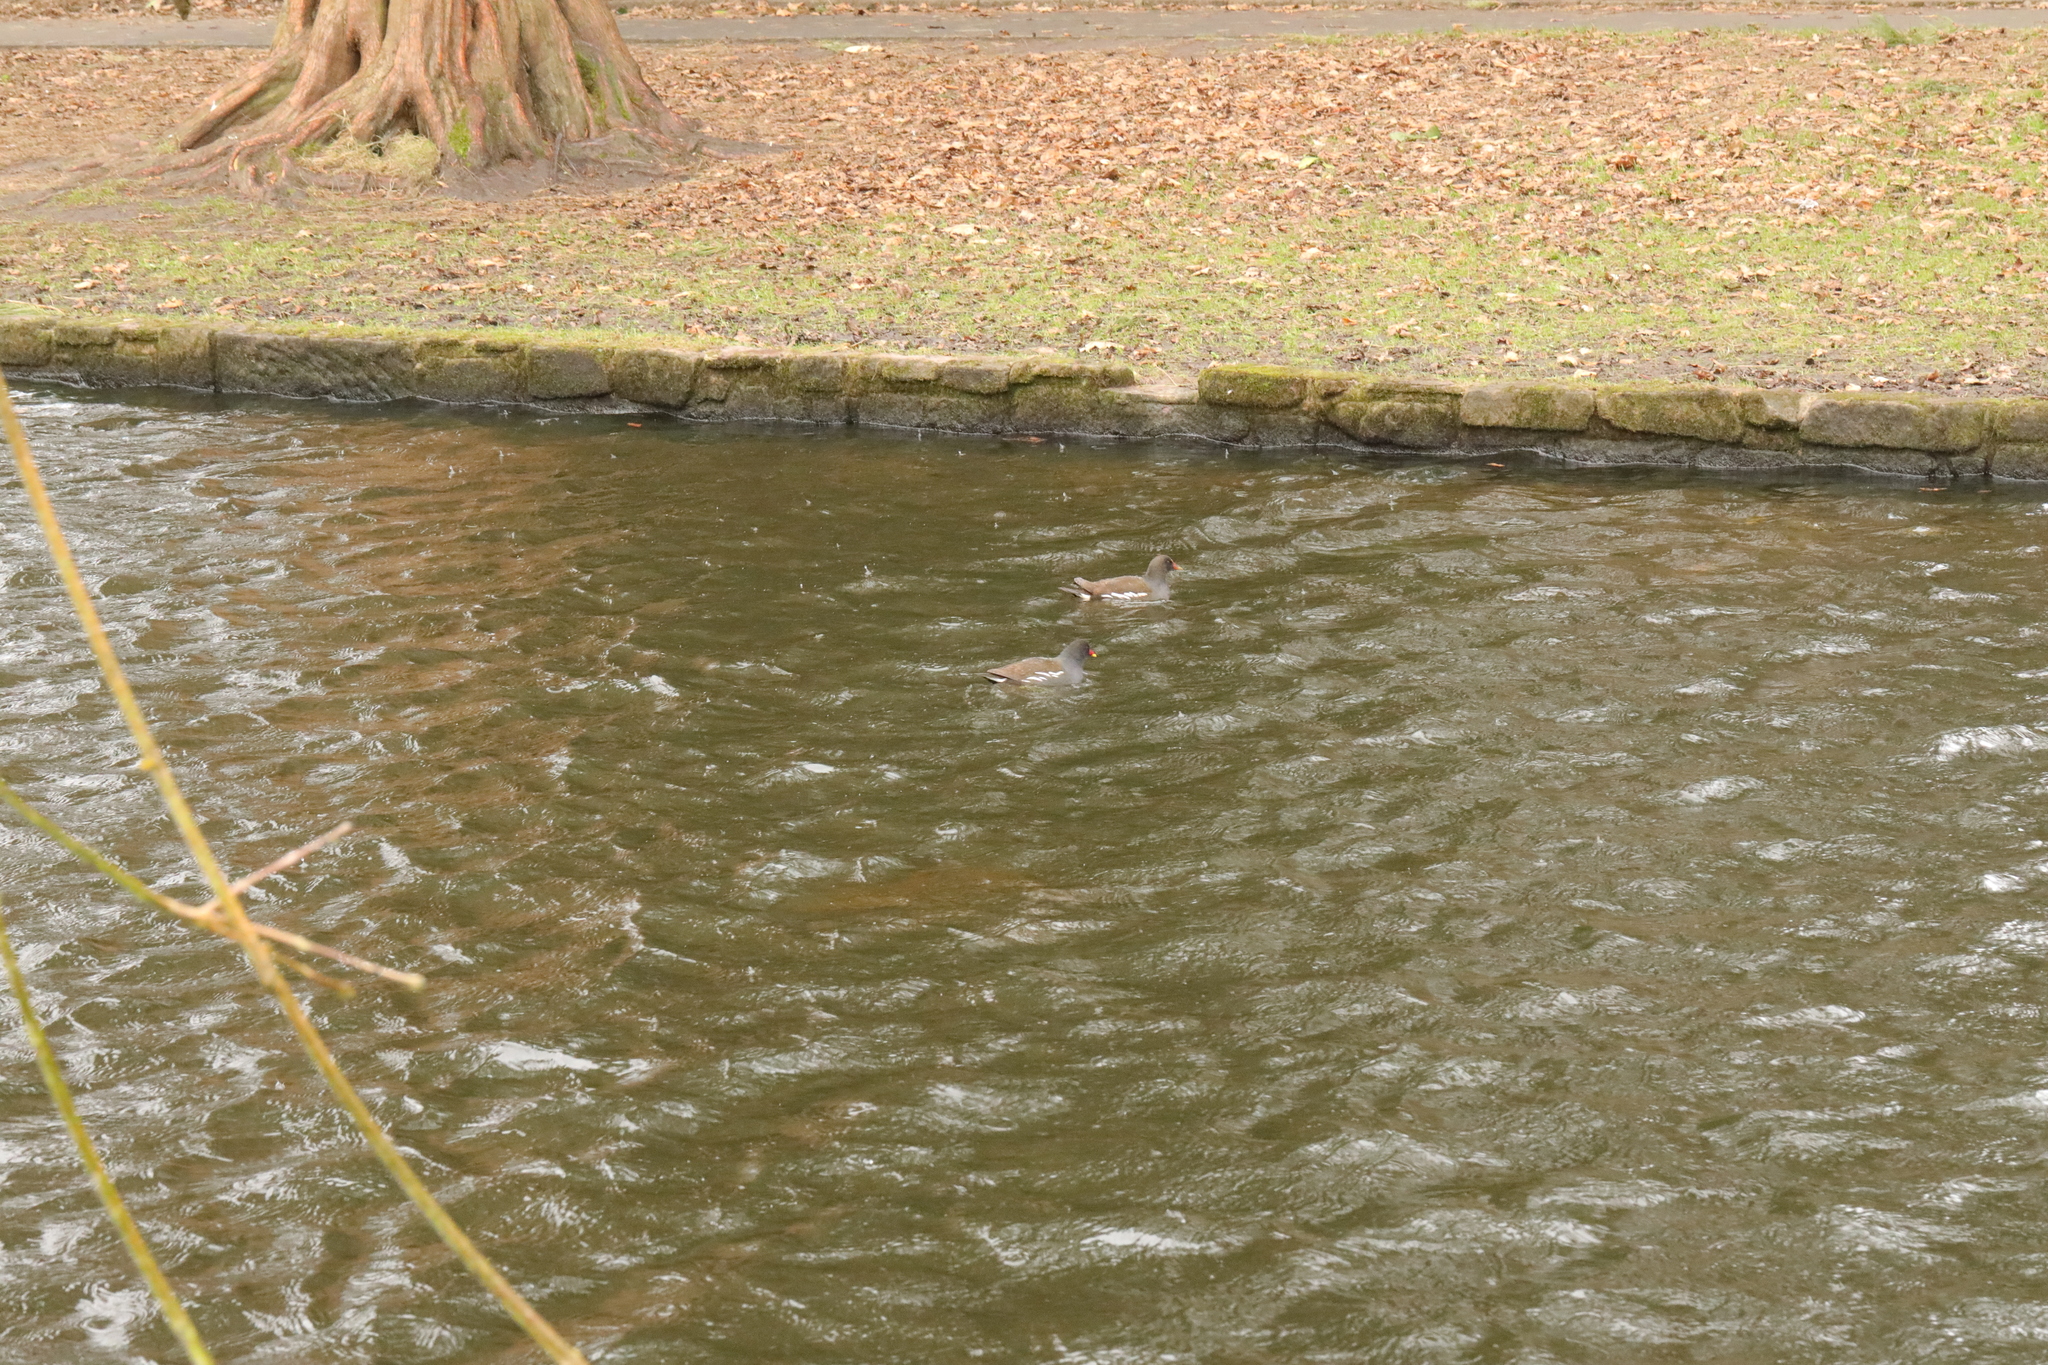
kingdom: Animalia
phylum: Chordata
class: Aves
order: Gruiformes
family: Rallidae
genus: Gallinula
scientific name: Gallinula chloropus
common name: Common moorhen
